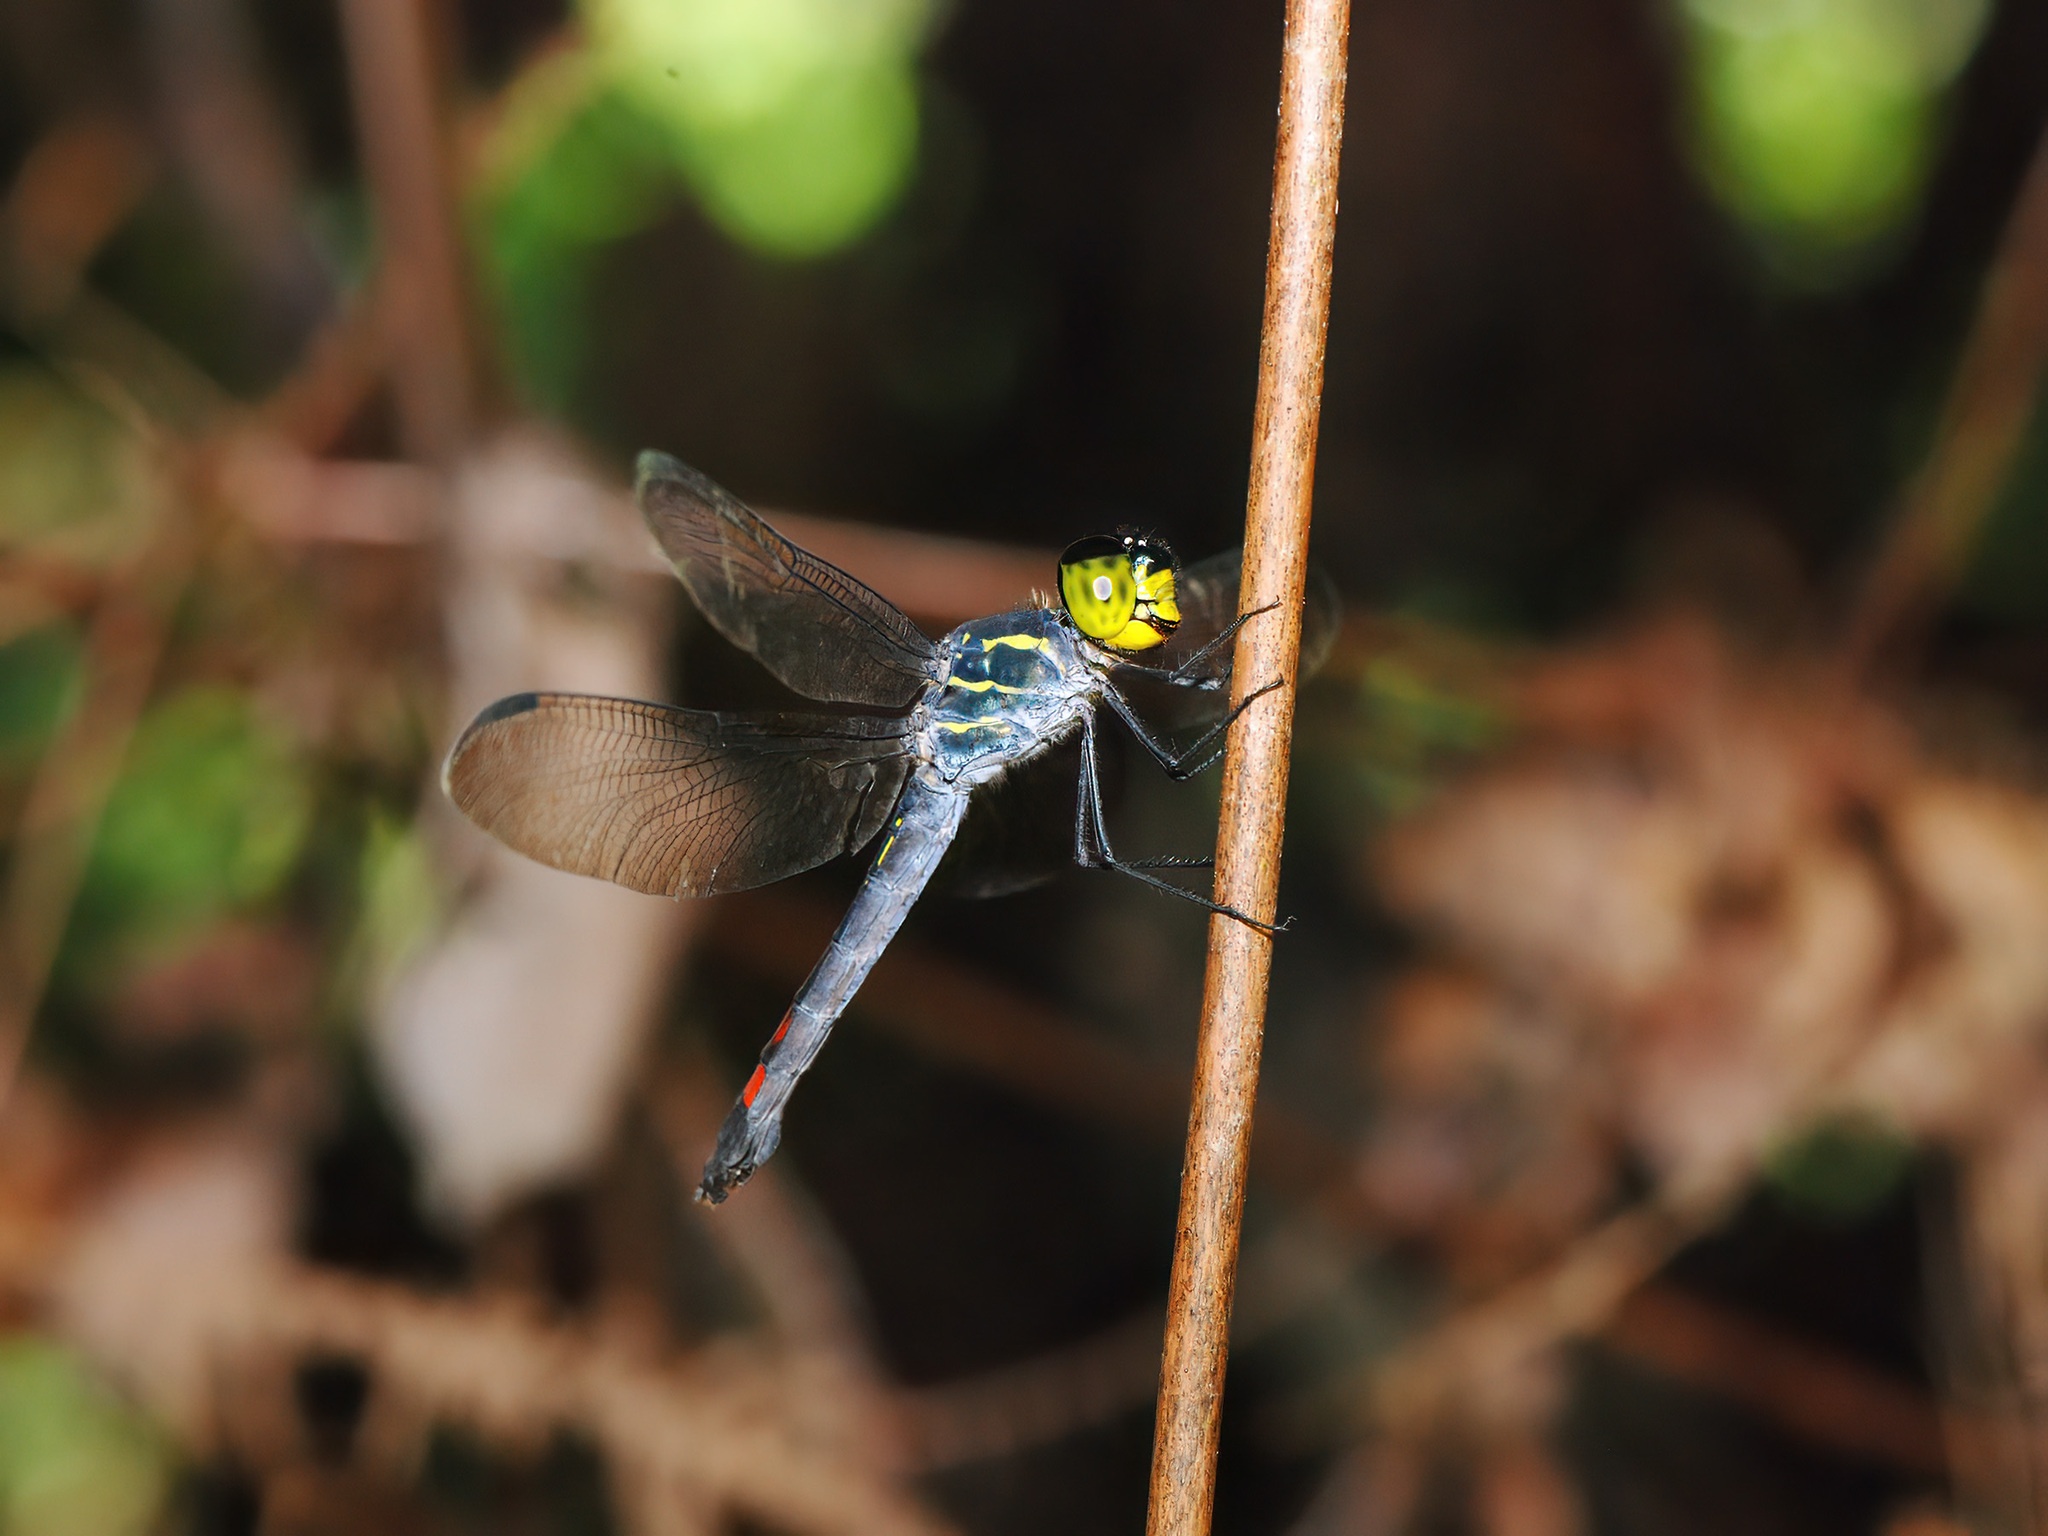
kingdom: Animalia
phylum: Arthropoda
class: Insecta
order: Odonata
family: Libellulidae
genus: Agrionoptera
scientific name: Agrionoptera sexlineata
